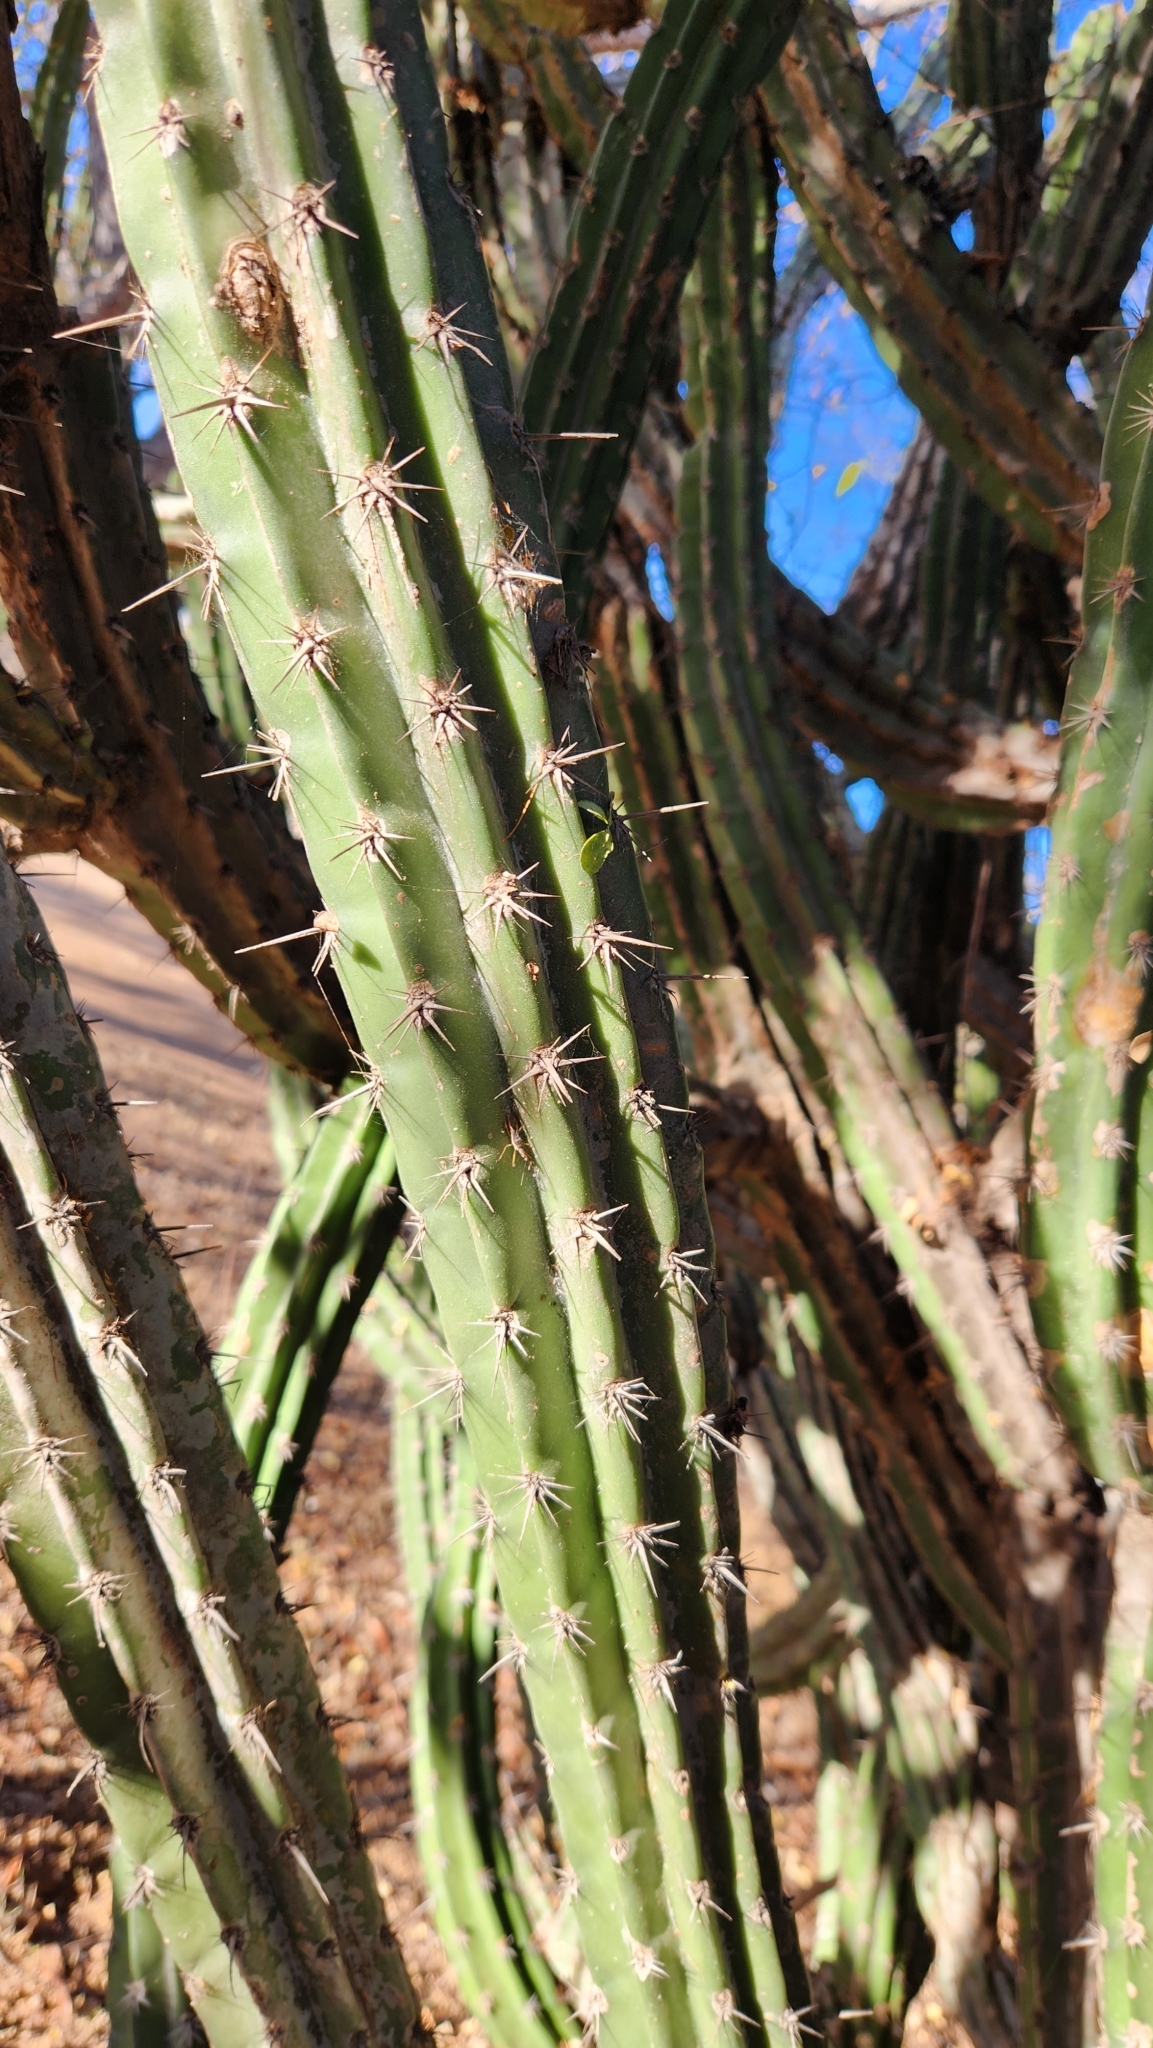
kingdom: Plantae
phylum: Tracheophyta
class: Magnoliopsida
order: Caryophyllales
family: Cactaceae
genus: Stenocereus
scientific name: Stenocereus gummosus
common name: Dagger cactus
